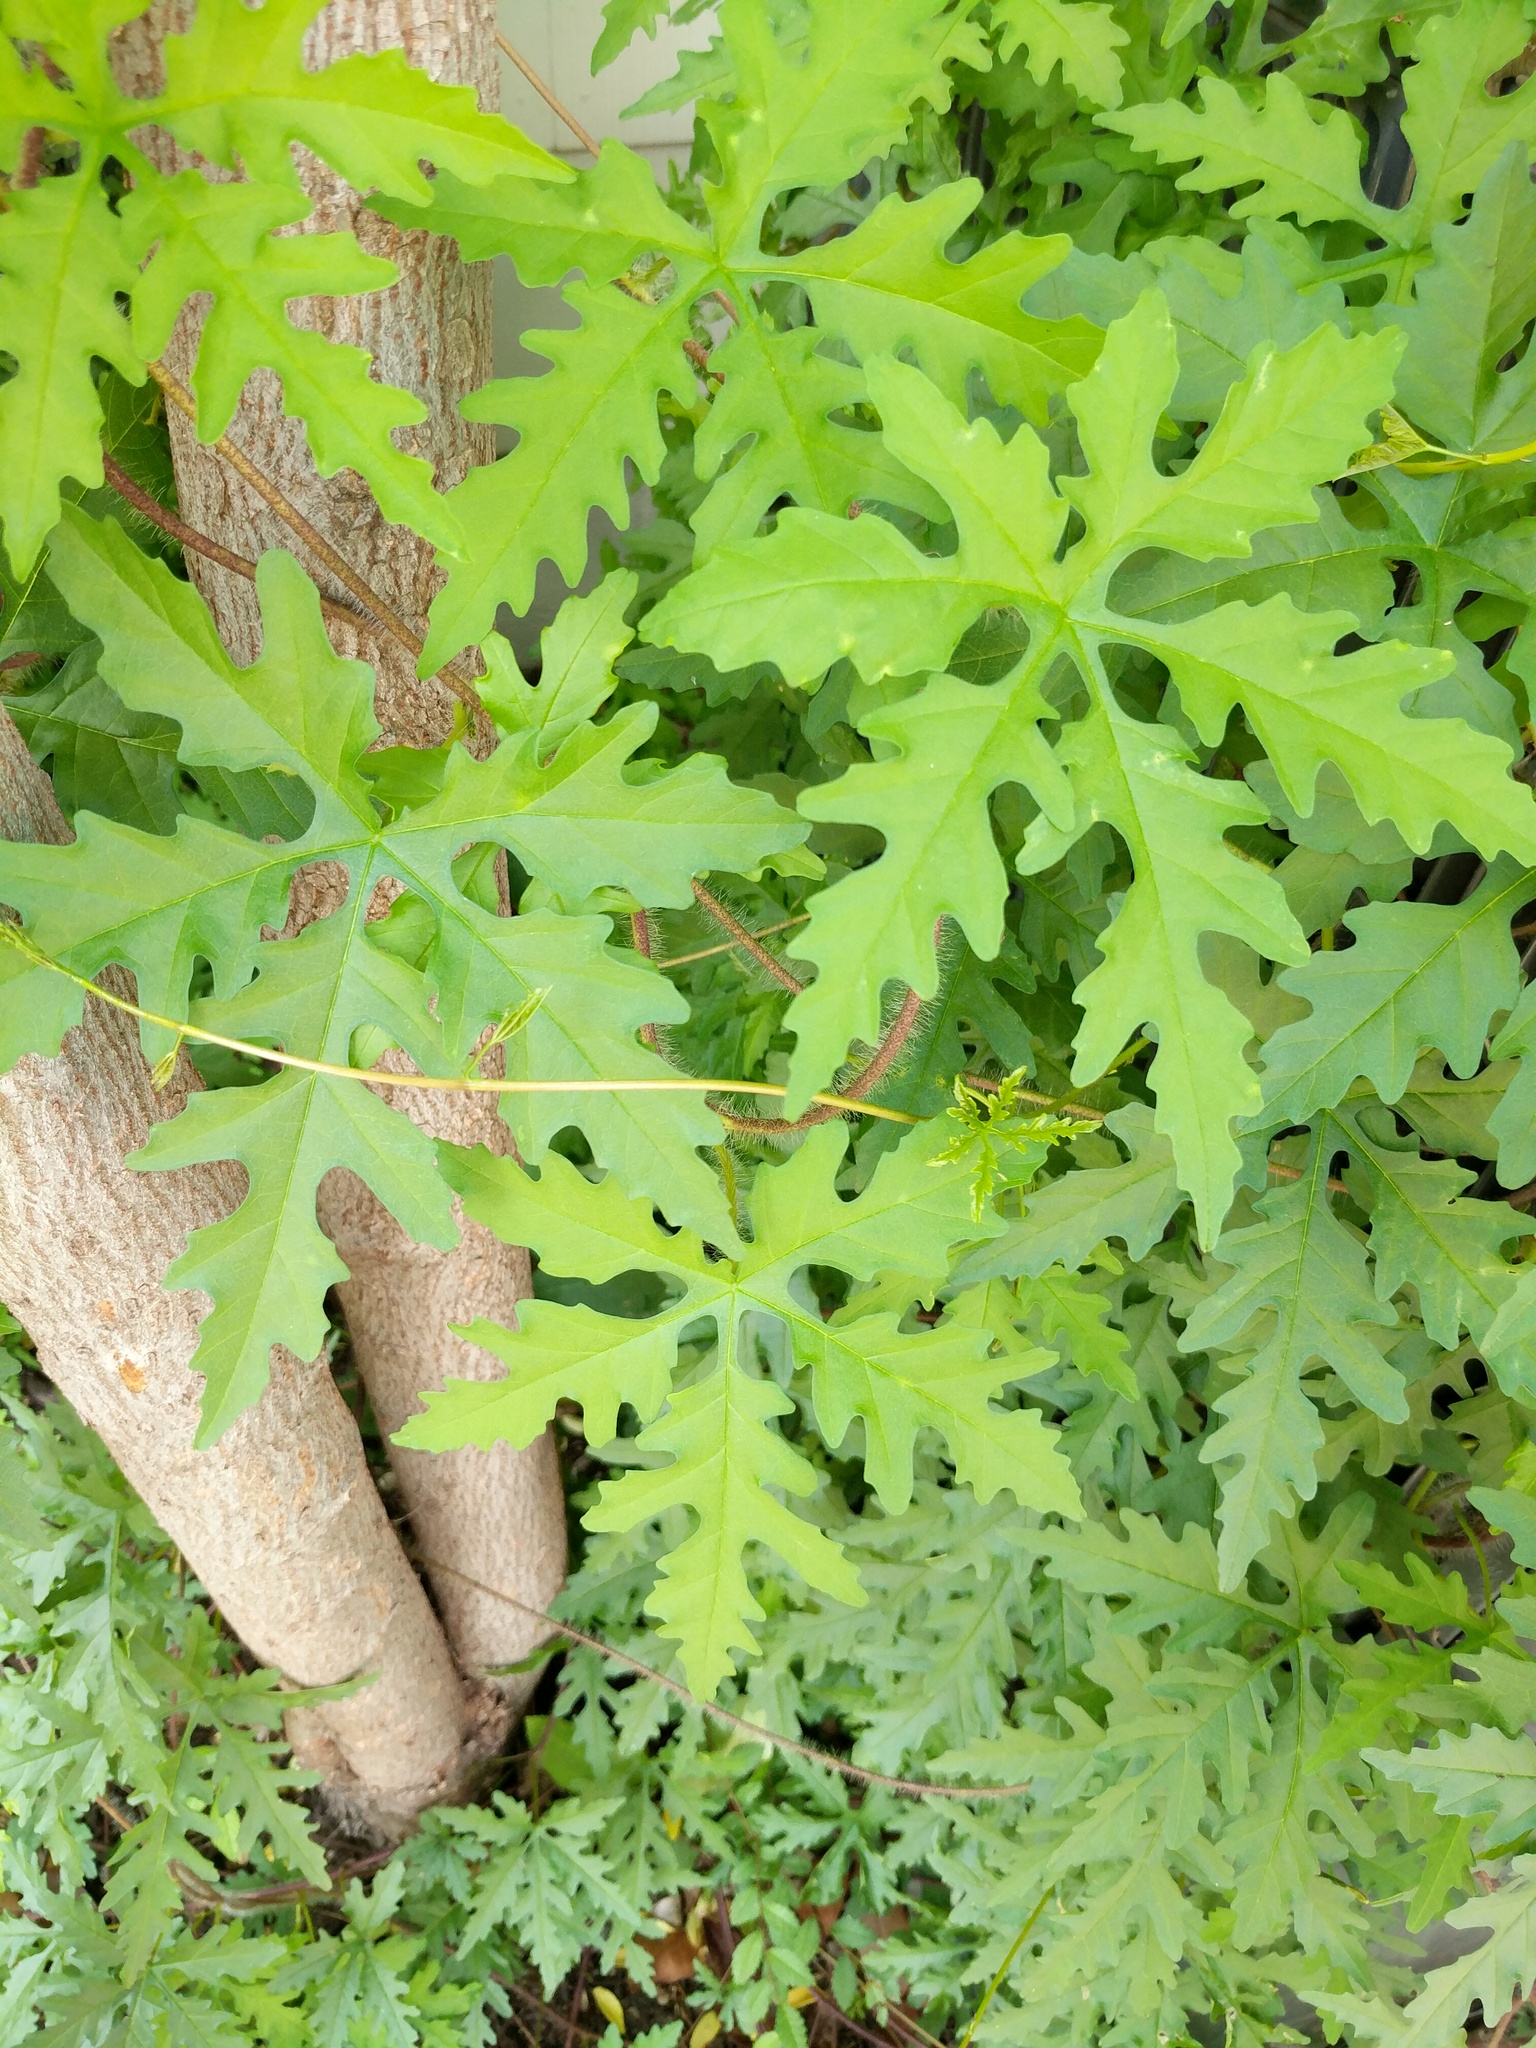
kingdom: Plantae
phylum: Tracheophyta
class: Magnoliopsida
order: Solanales
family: Convolvulaceae
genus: Distimake
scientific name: Distimake dissectus
